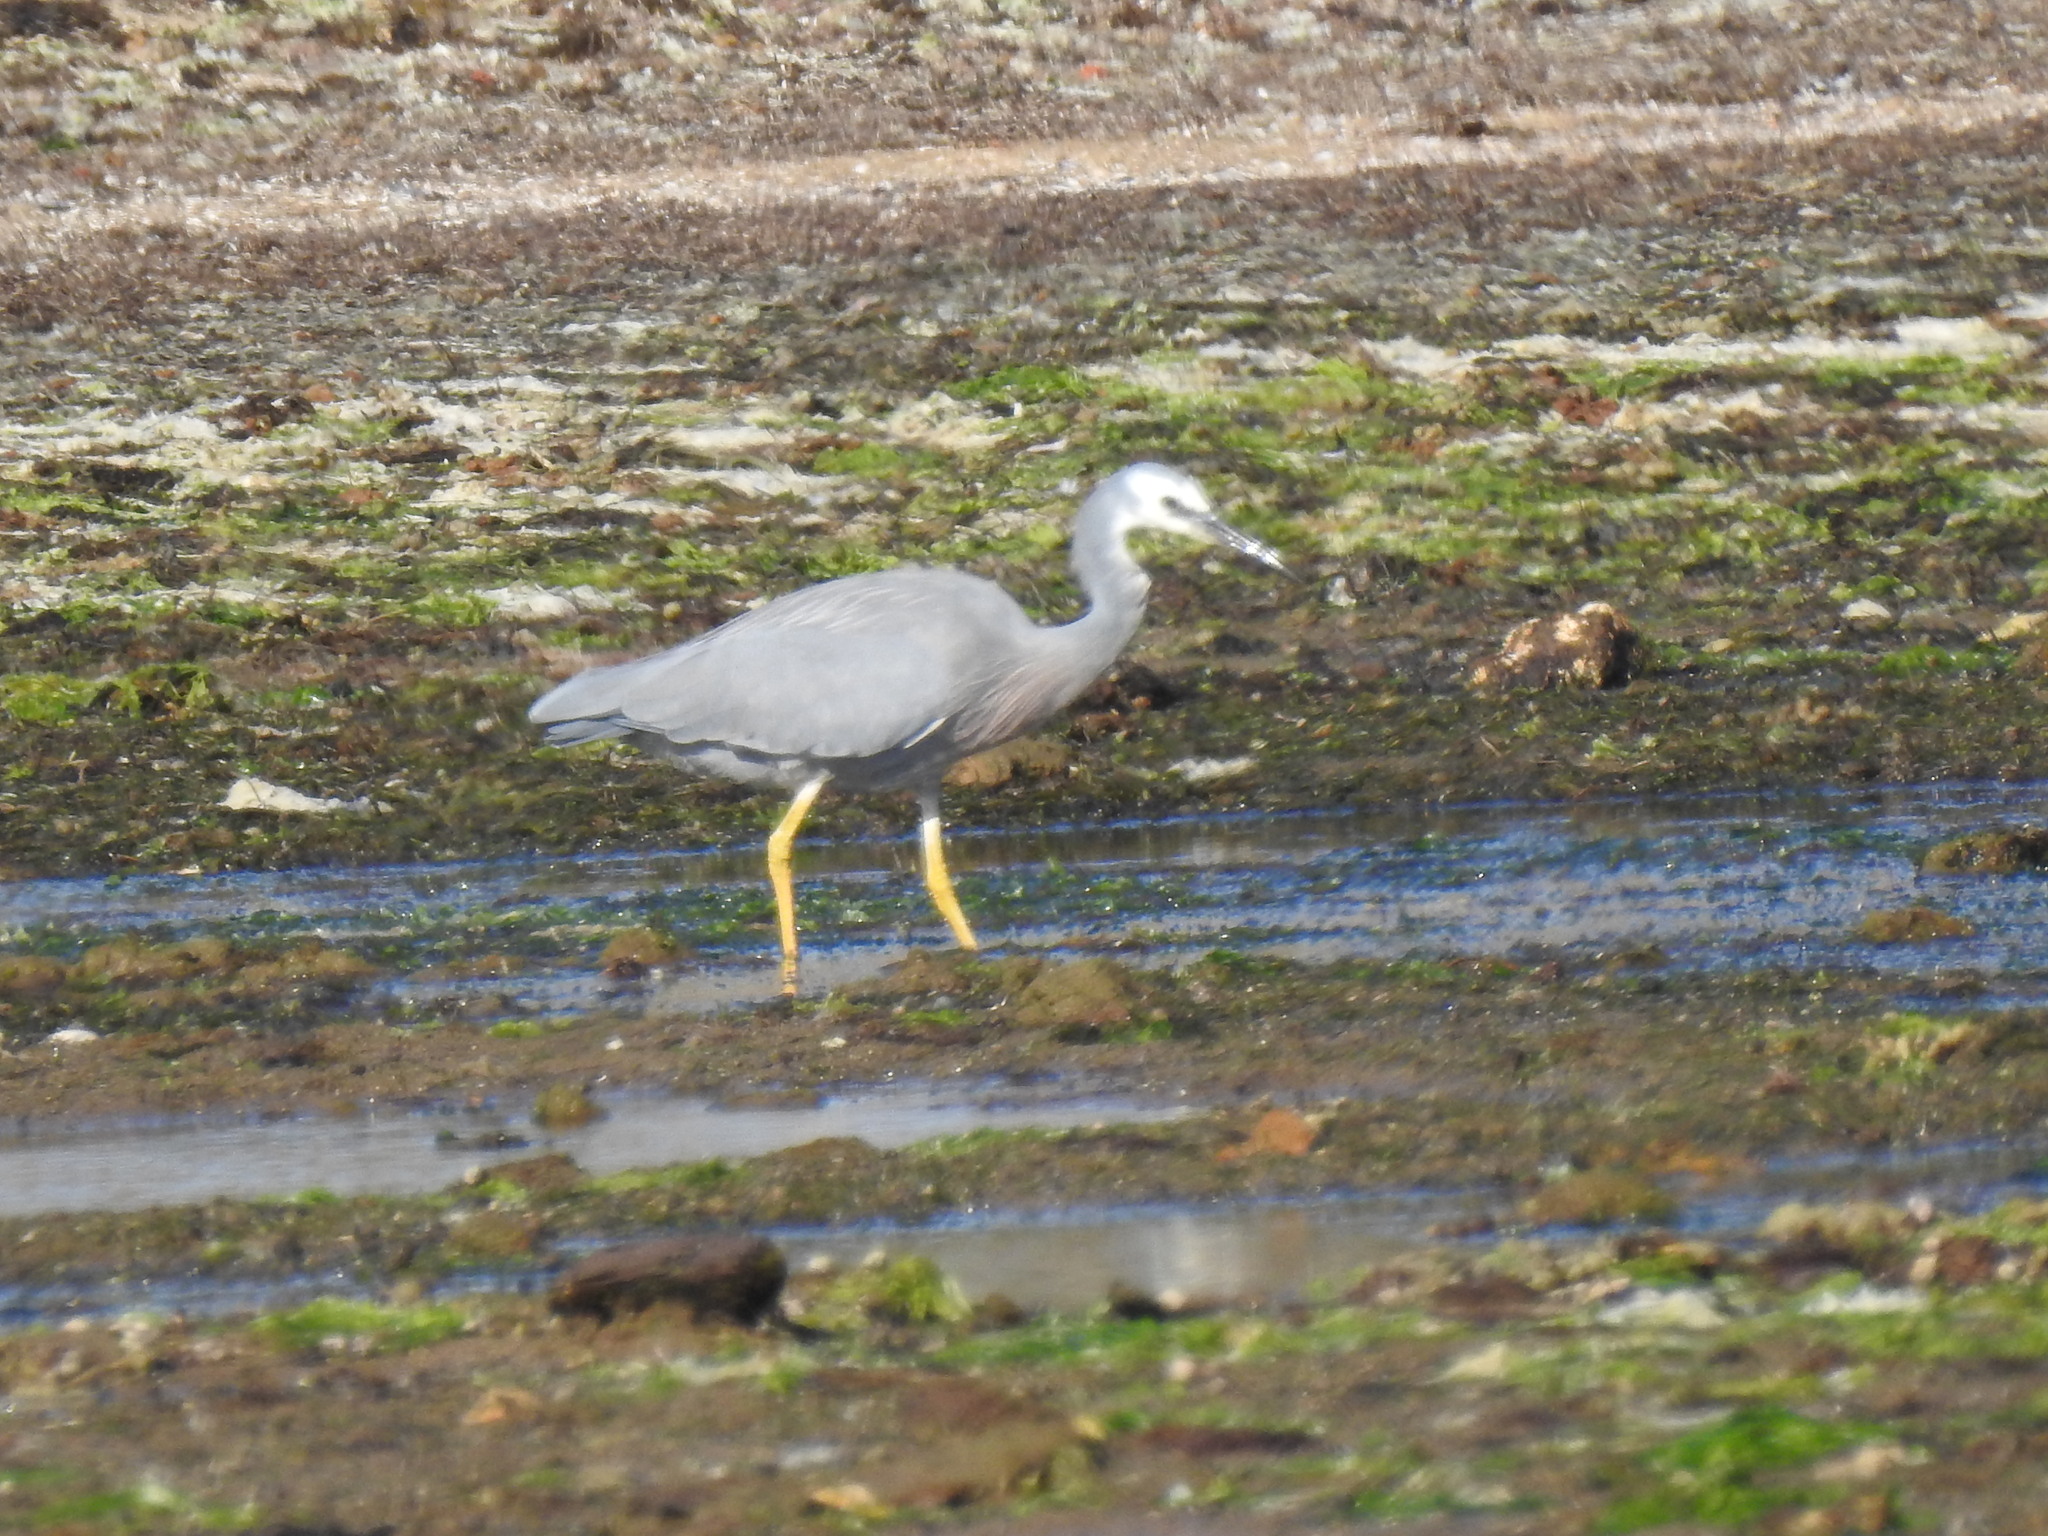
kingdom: Animalia
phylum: Chordata
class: Aves
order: Pelecaniformes
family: Ardeidae
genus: Egretta
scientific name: Egretta novaehollandiae
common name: White-faced heron
